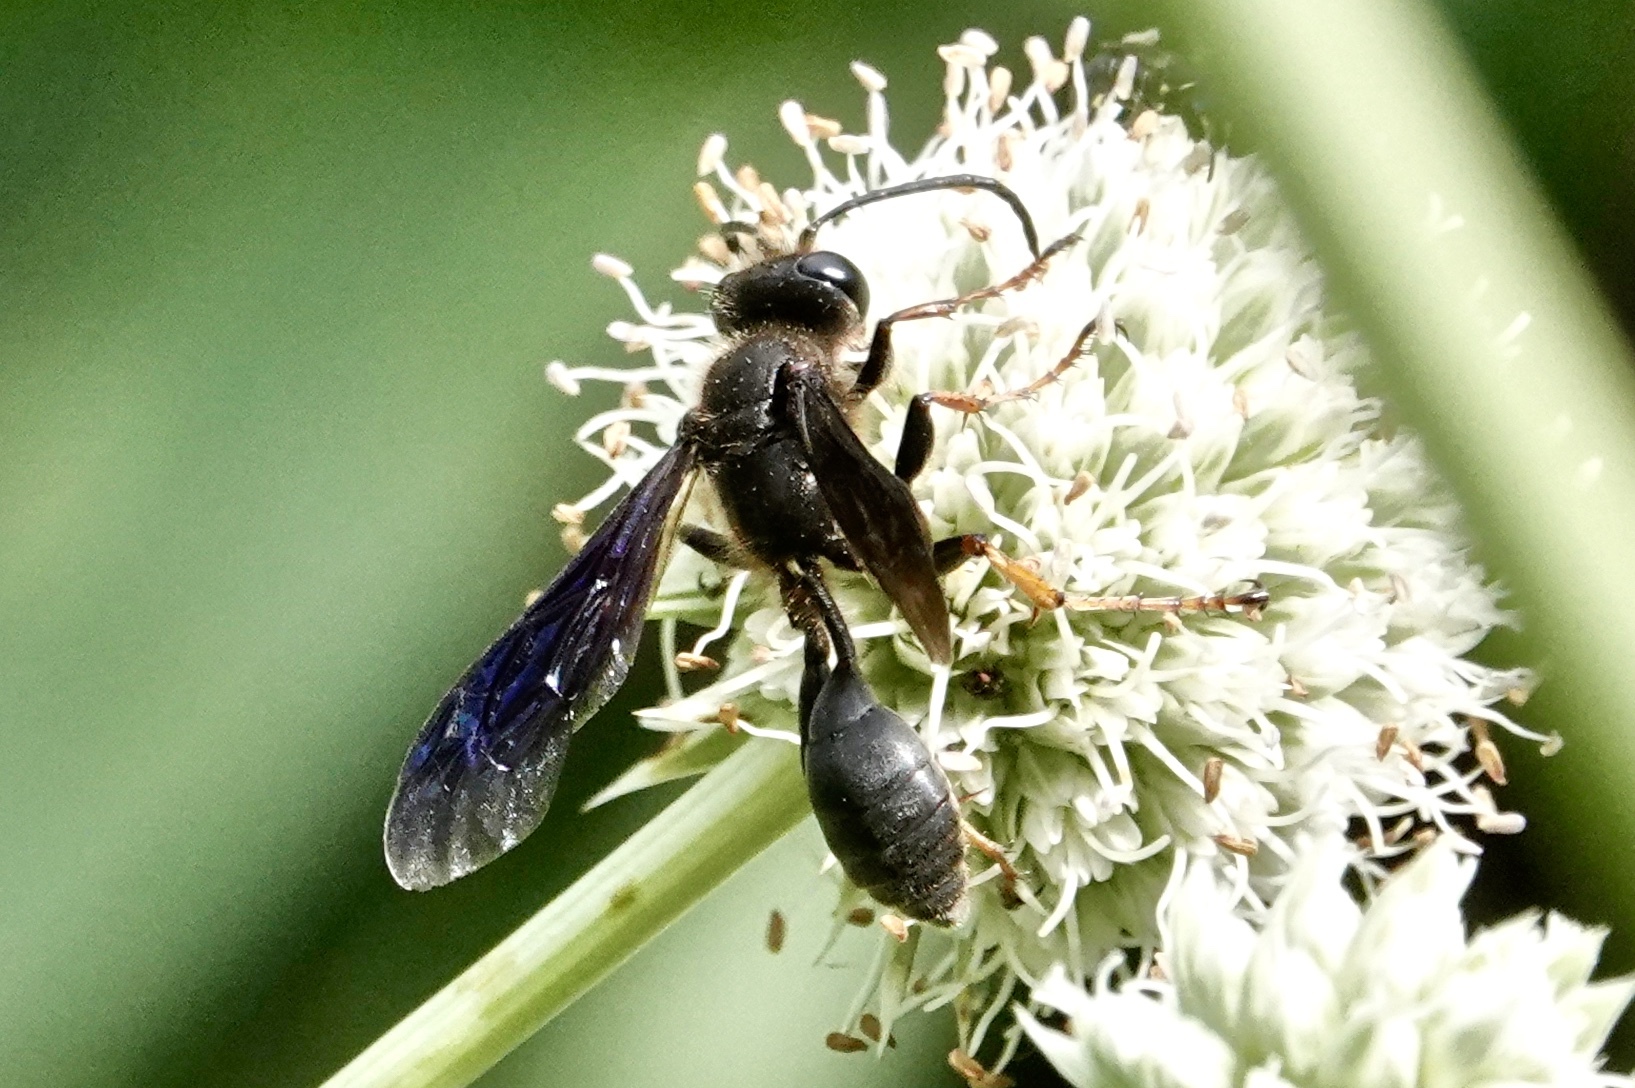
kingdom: Animalia
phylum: Arthropoda
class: Insecta
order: Hymenoptera
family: Sphecidae
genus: Isodontia
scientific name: Isodontia auripes
